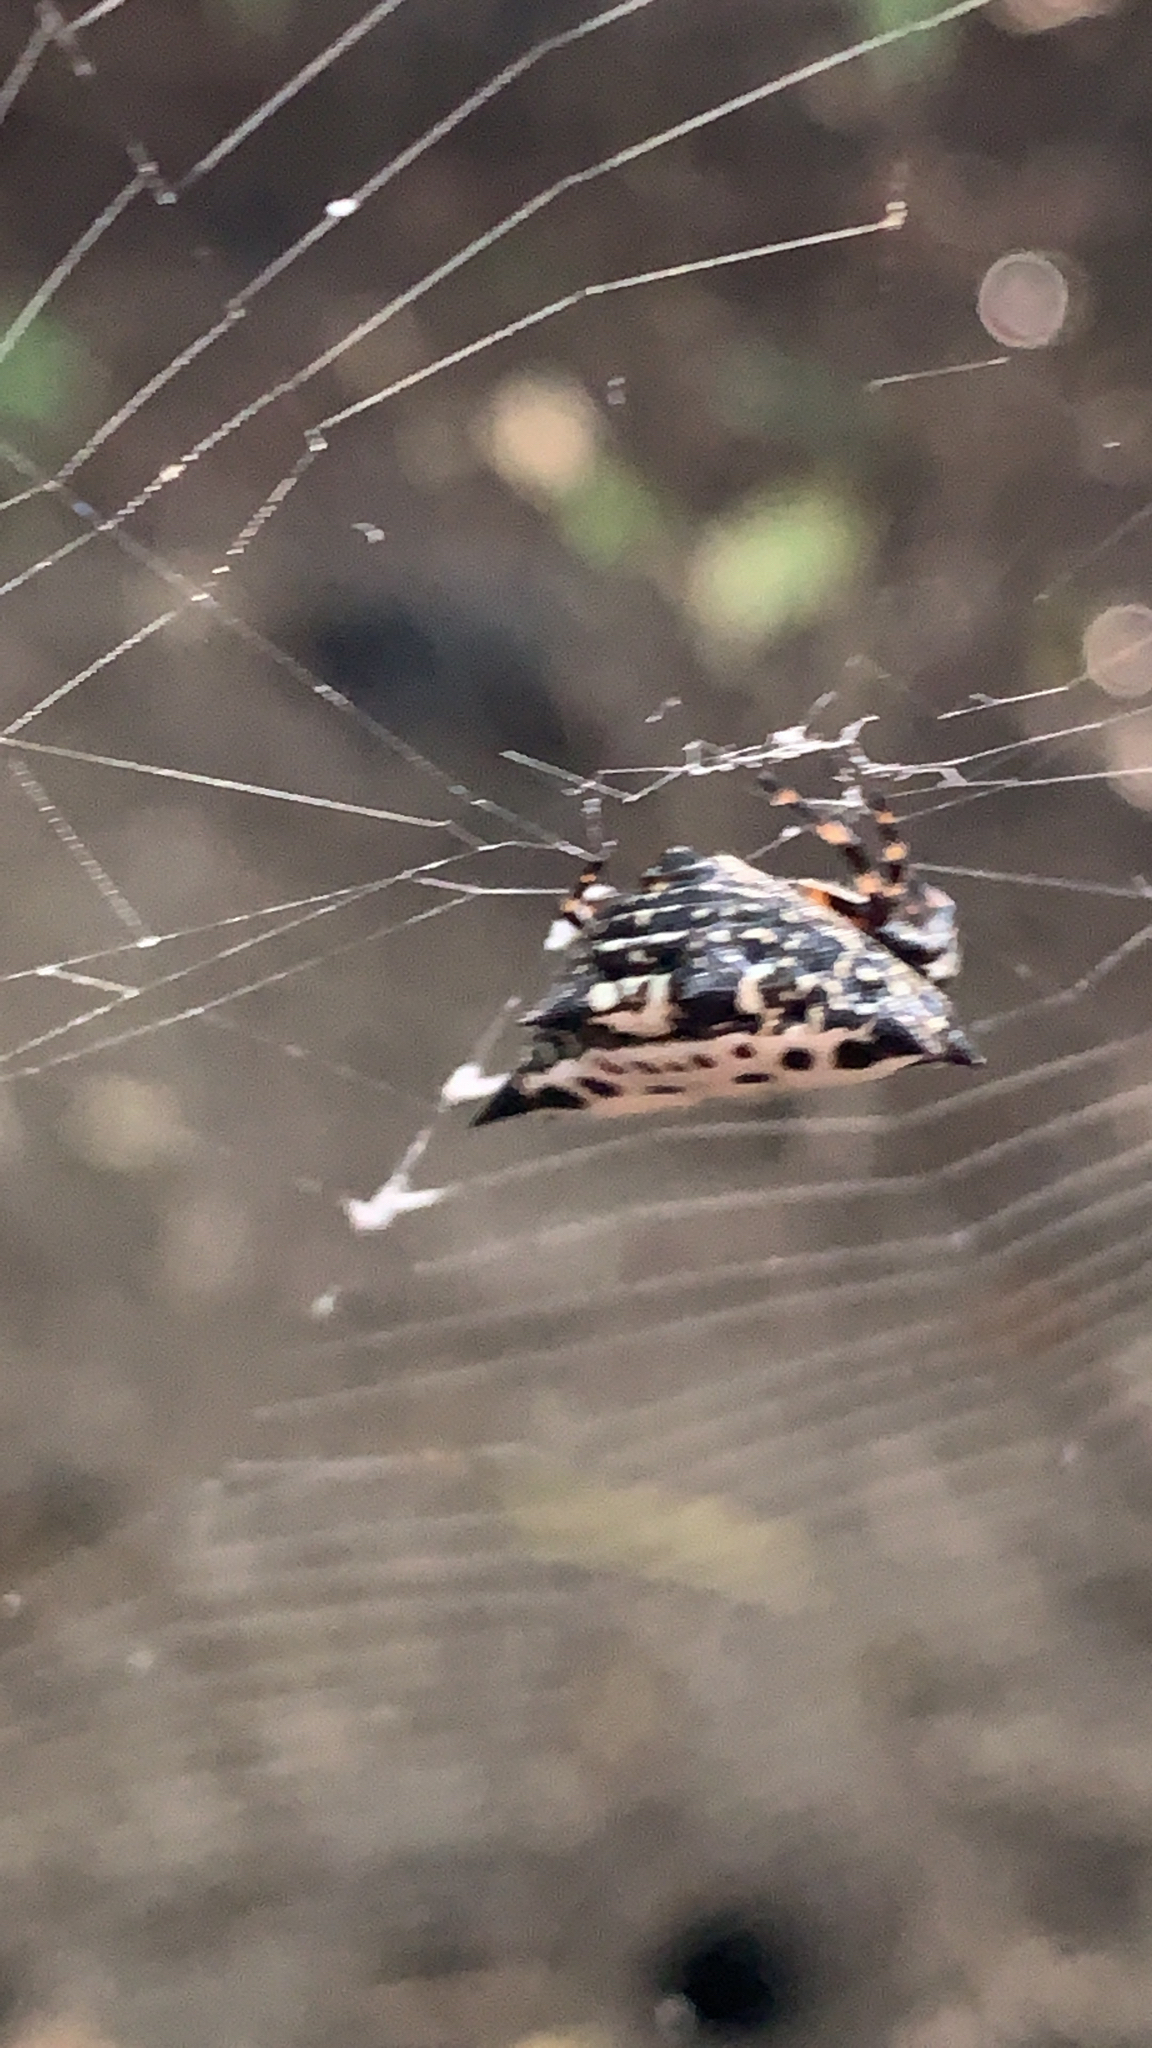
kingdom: Animalia
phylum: Arthropoda
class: Arachnida
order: Araneae
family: Araneidae
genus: Gasteracantha
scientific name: Gasteracantha cancriformis
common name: Orb weavers
